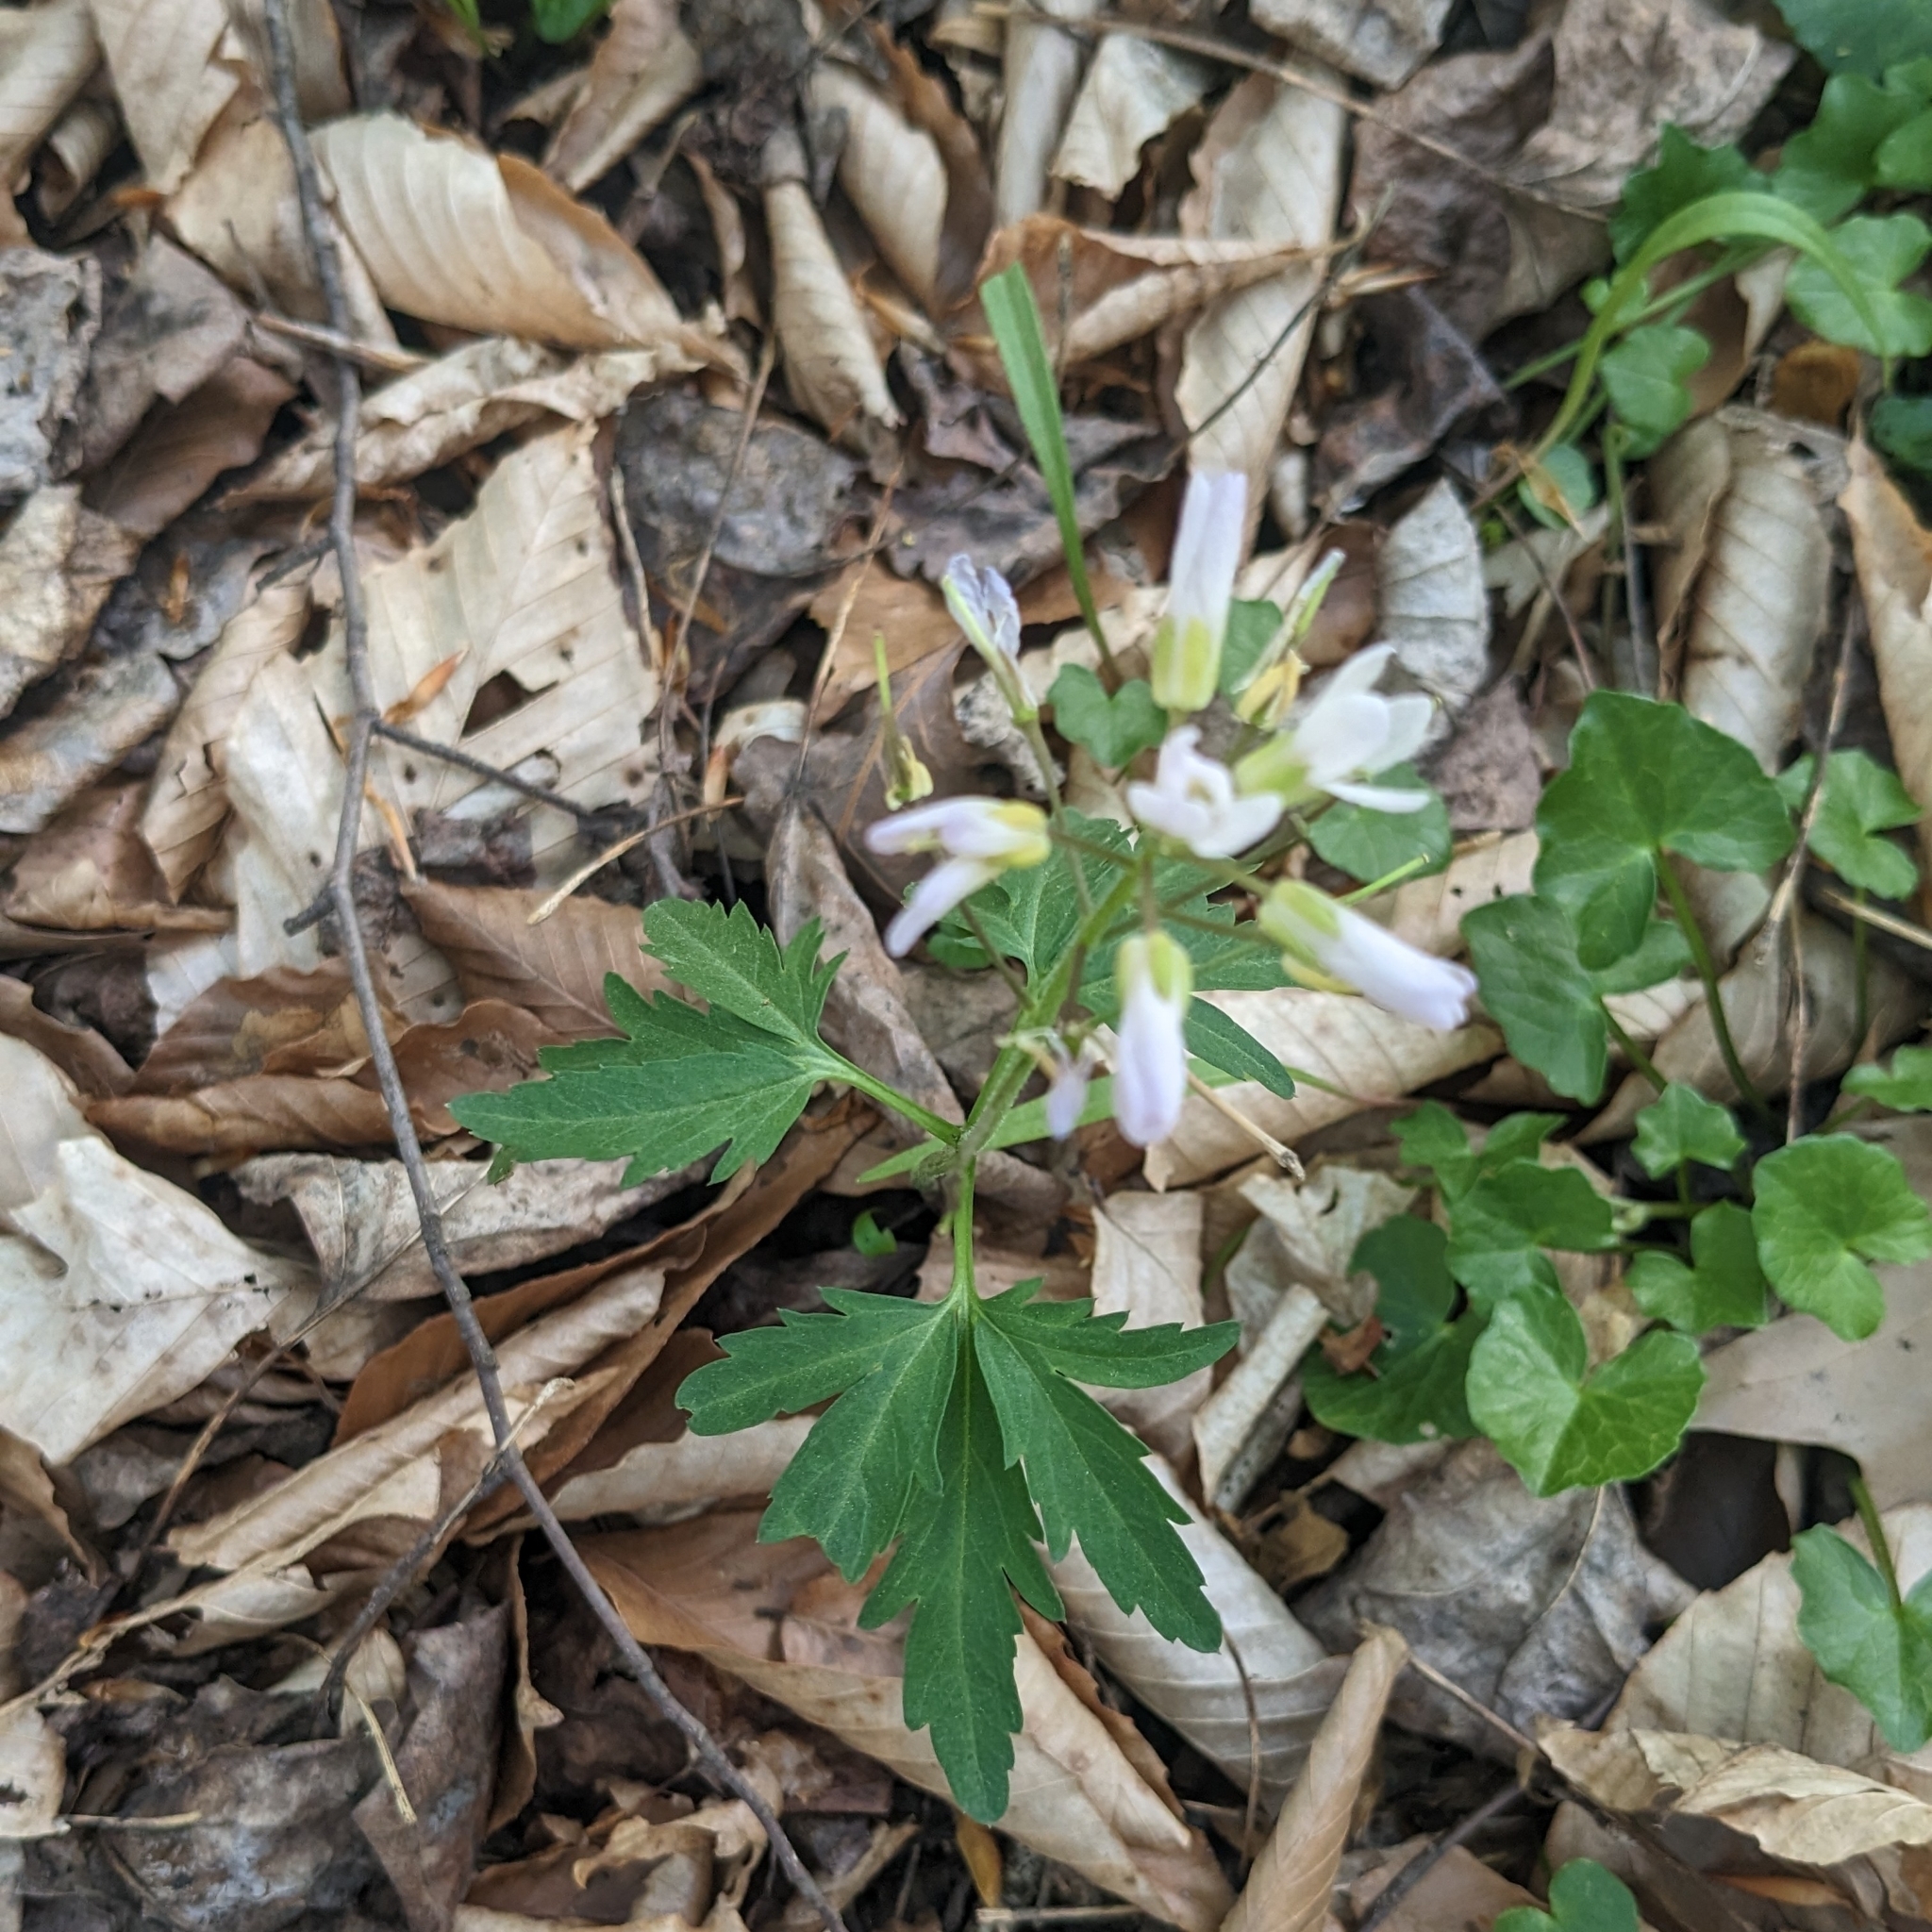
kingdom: Plantae
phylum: Tracheophyta
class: Magnoliopsida
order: Brassicales
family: Brassicaceae
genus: Cardamine
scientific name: Cardamine concatenata
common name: Cut-leaf toothcup
